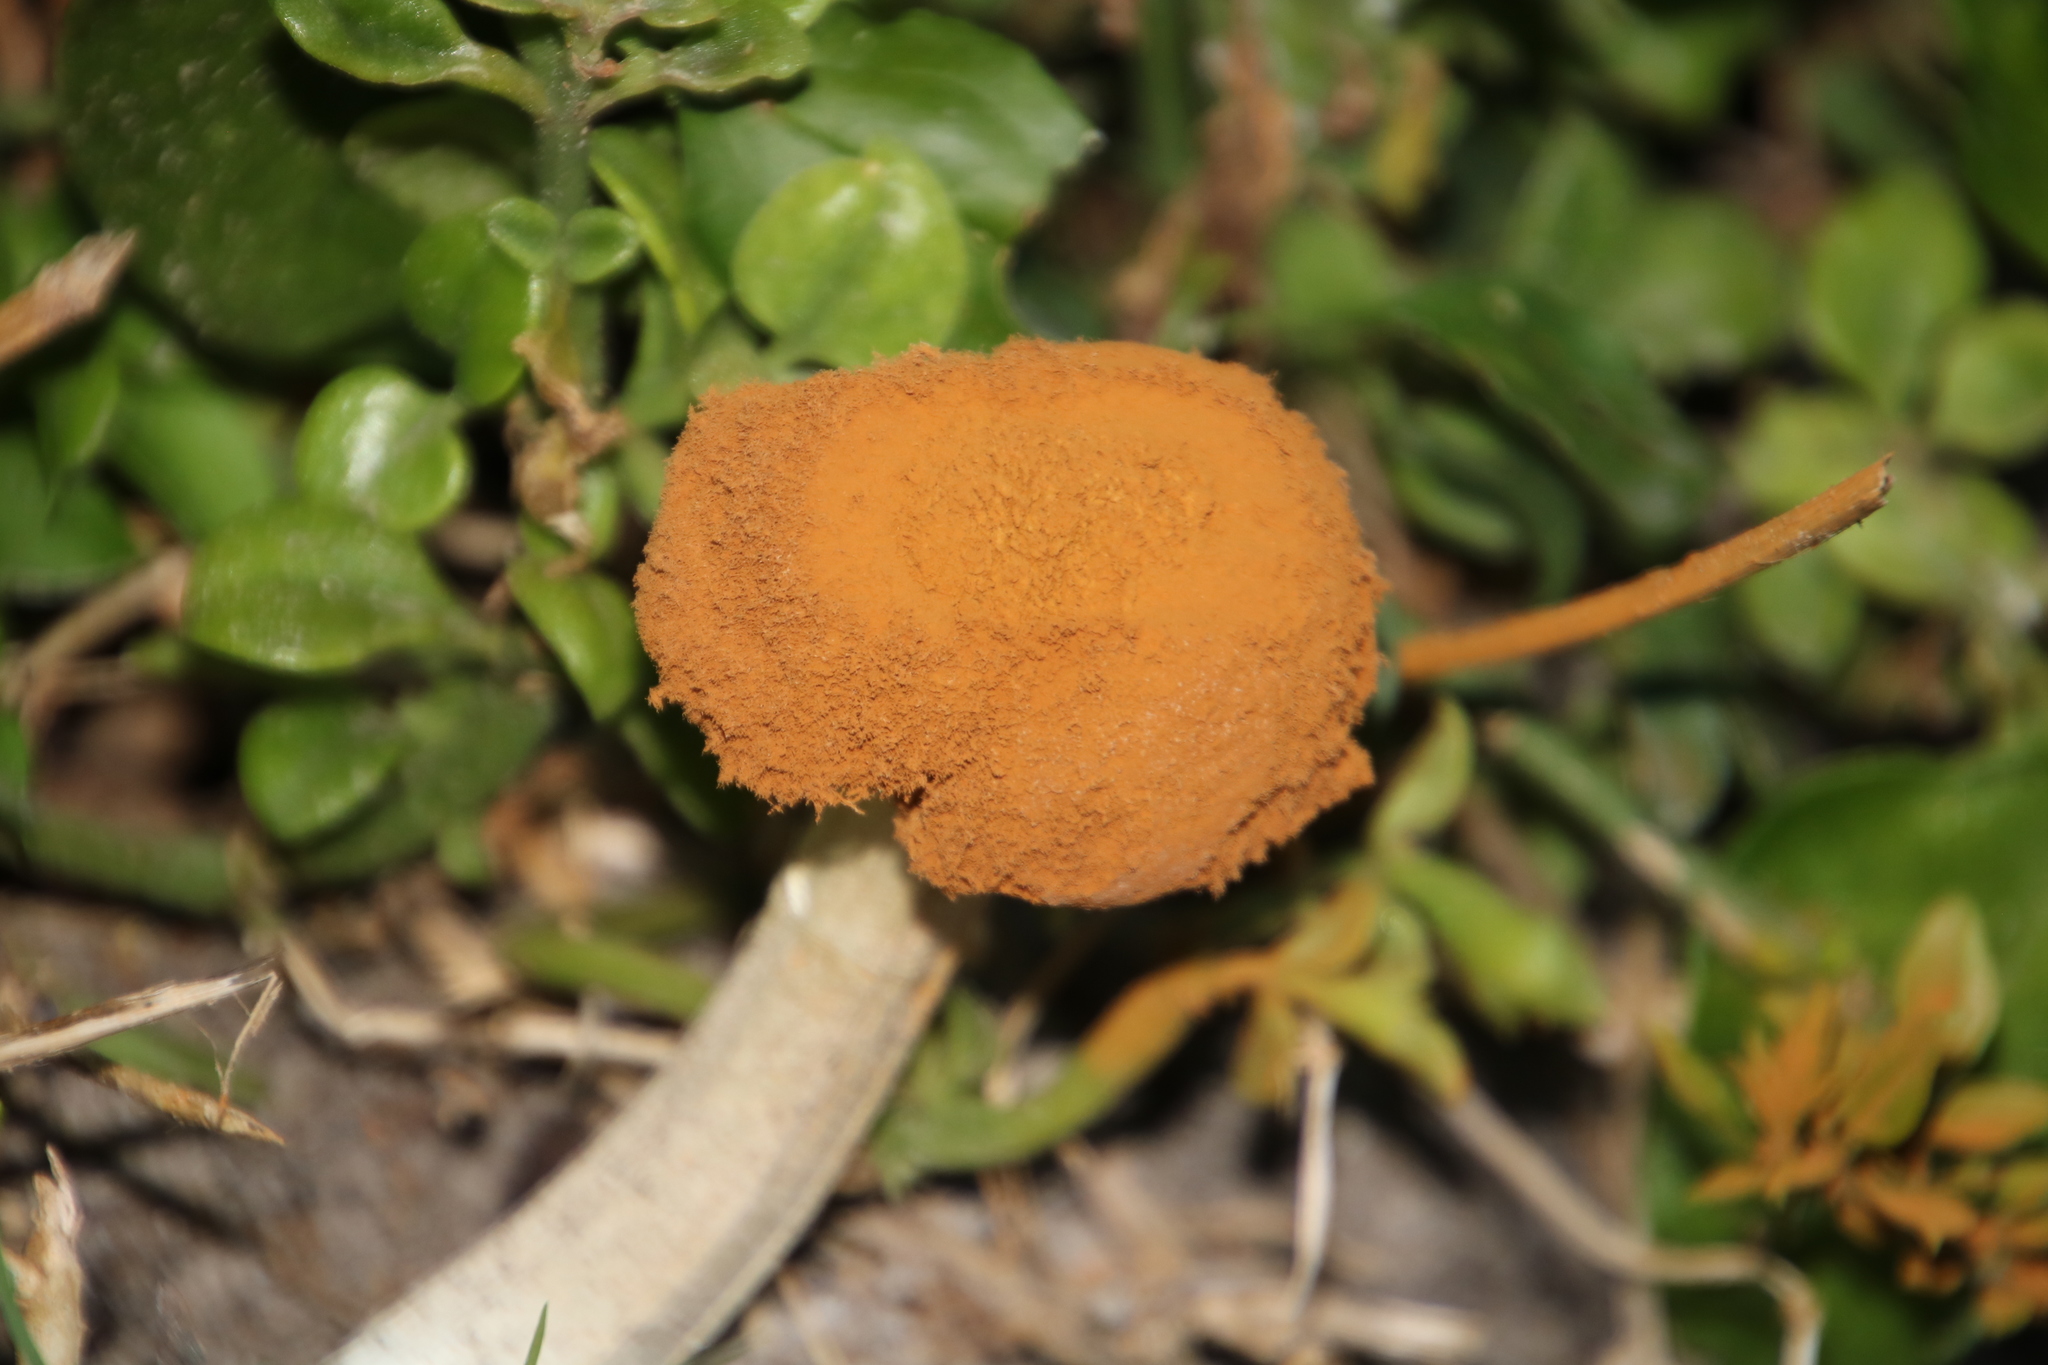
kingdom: Fungi
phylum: Basidiomycota
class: Agaricomycetes
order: Agaricales
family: Agaricaceae
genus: Battarrea
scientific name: Battarrea phalloides
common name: Sandy stiltball
